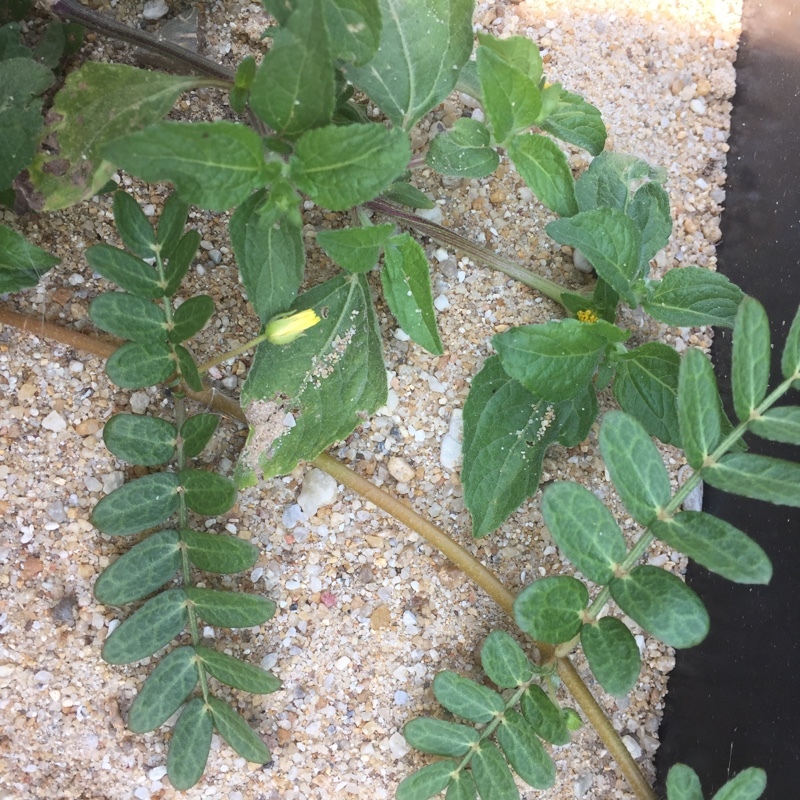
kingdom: Plantae
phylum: Tracheophyta
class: Magnoliopsida
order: Zygophyllales
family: Zygophyllaceae
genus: Tribulus
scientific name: Tribulus terrestris
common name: Puncturevine
